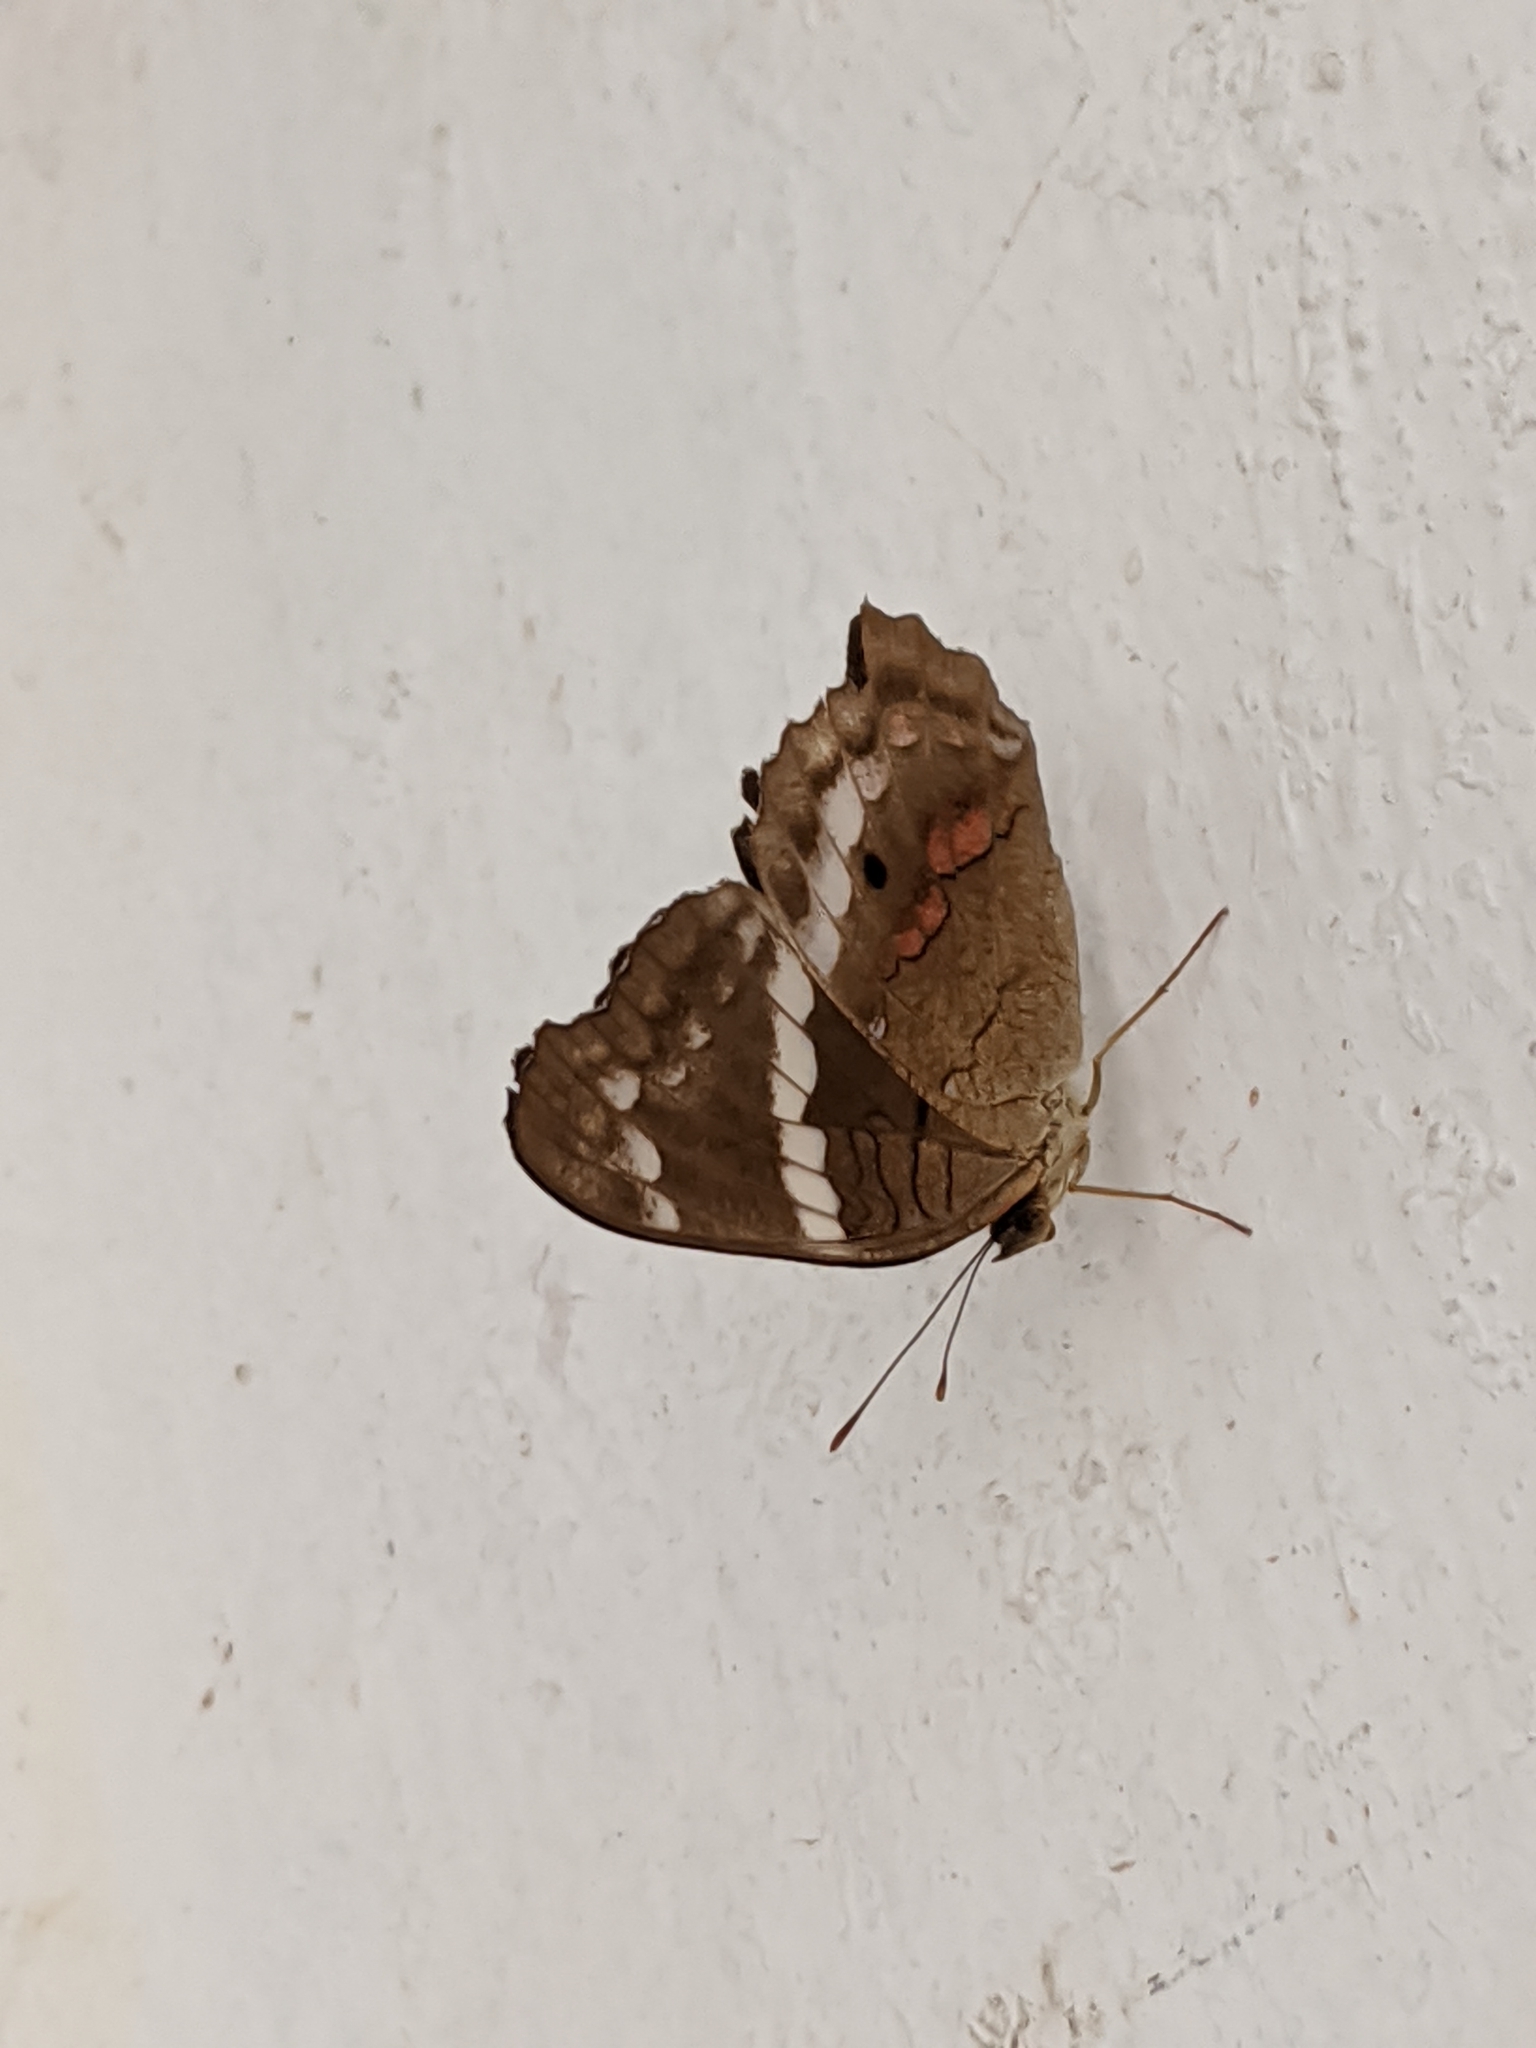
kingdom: Animalia
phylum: Arthropoda
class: Insecta
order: Lepidoptera
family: Nymphalidae
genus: Anartia
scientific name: Anartia fatima
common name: Banded peacock
